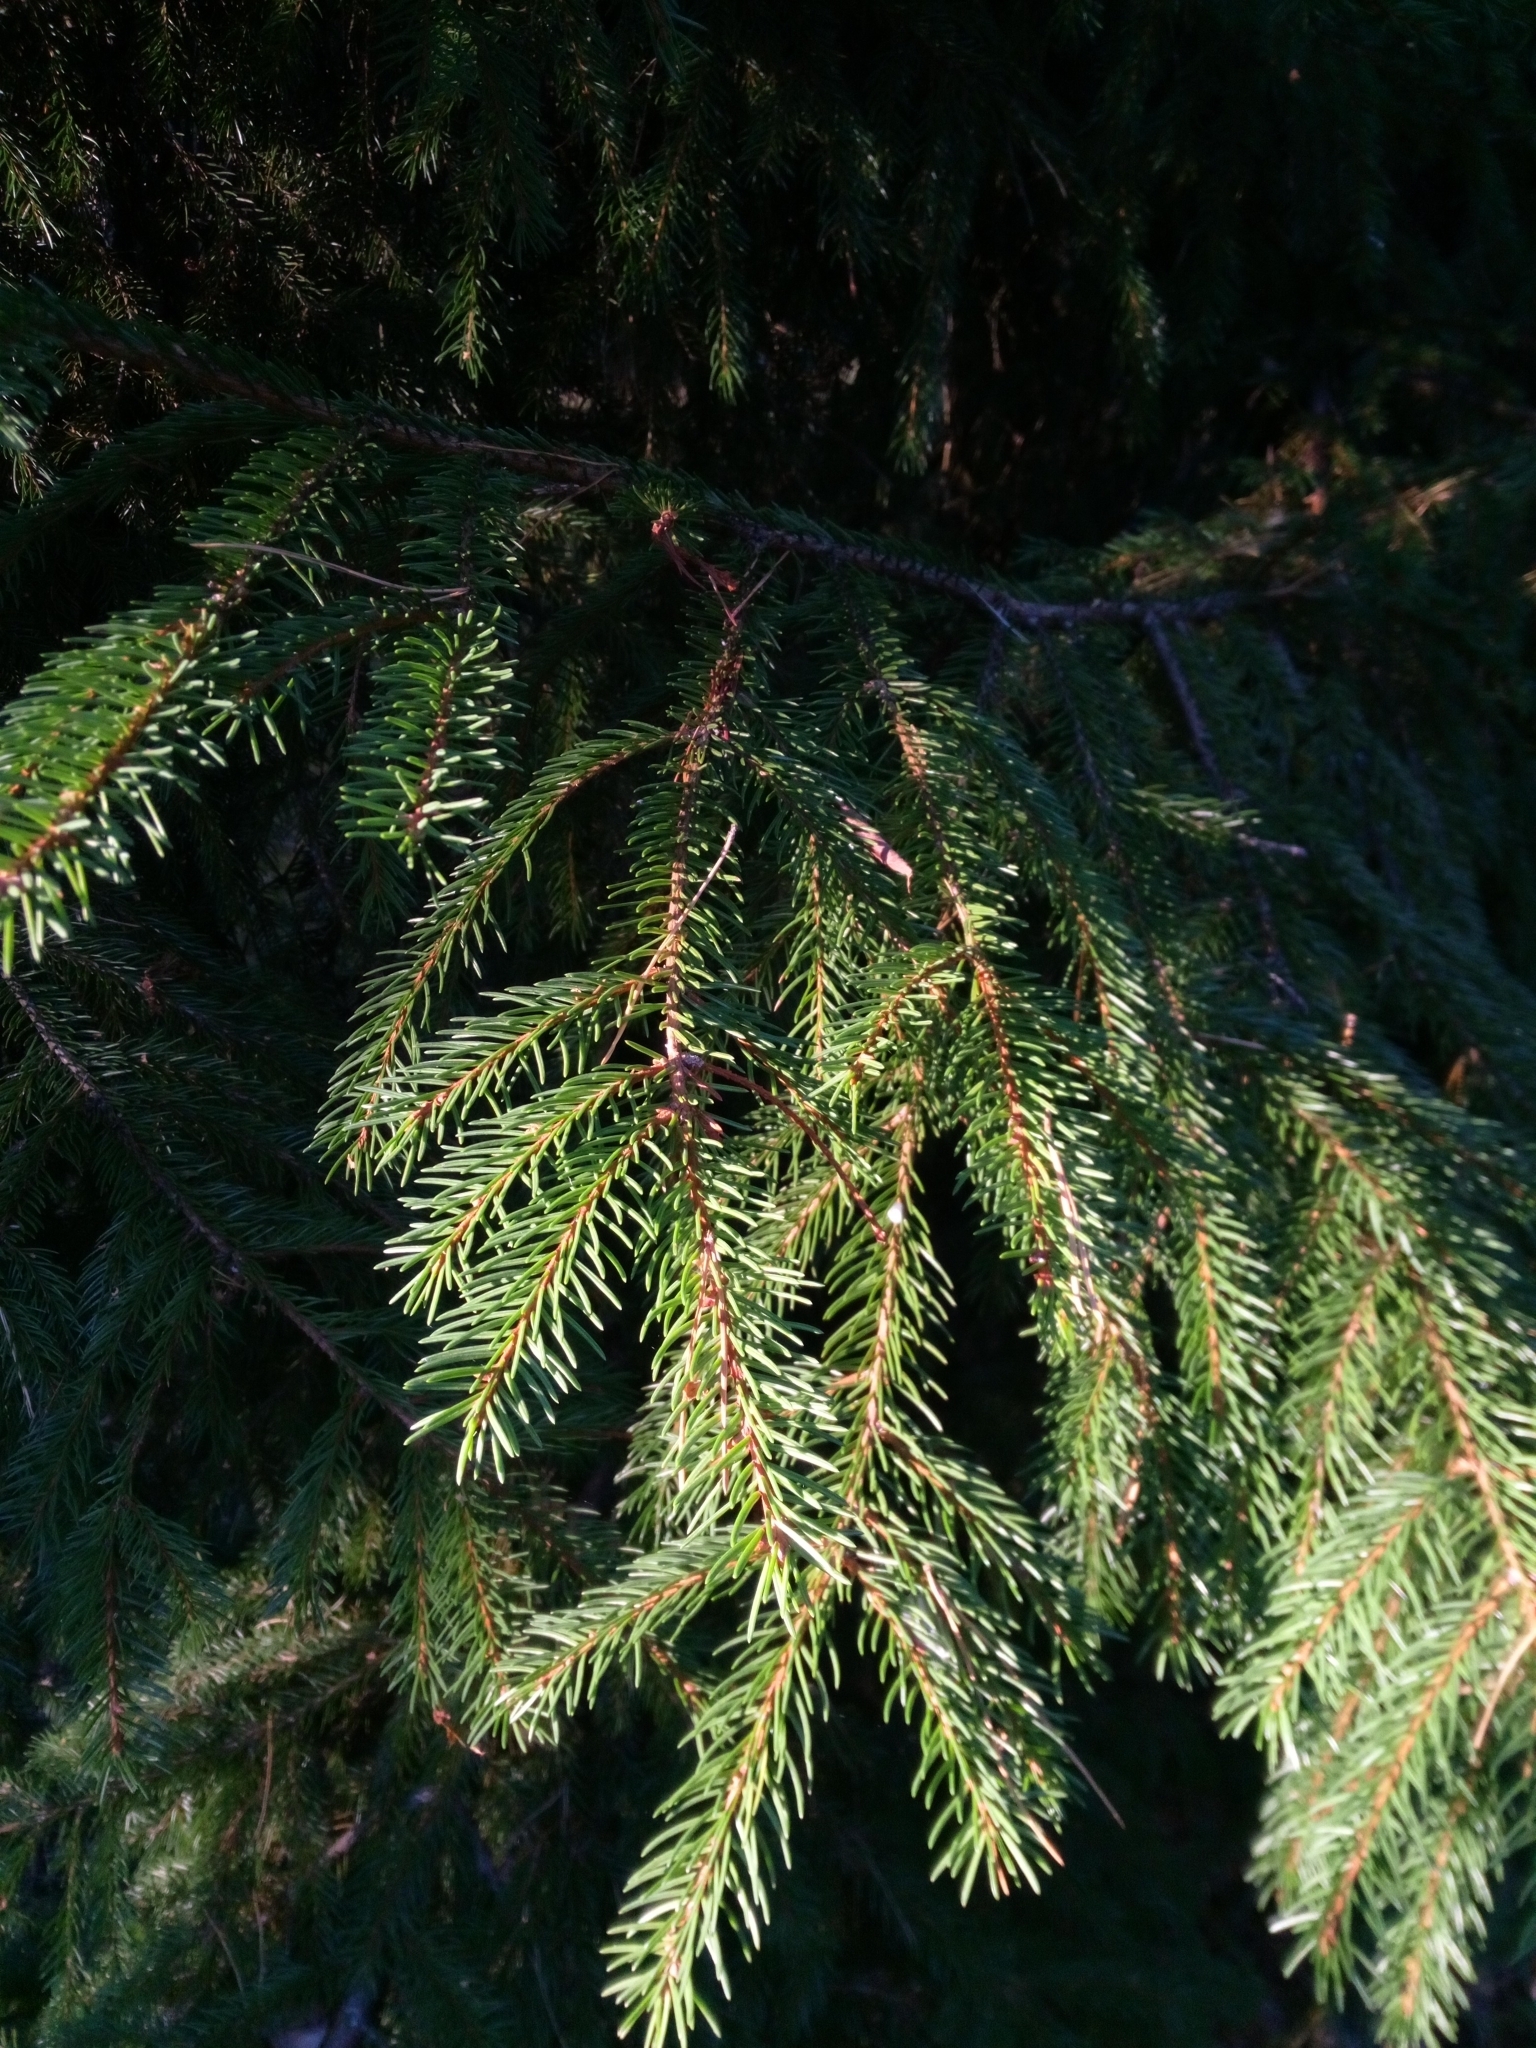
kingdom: Plantae
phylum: Tracheophyta
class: Pinopsida
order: Pinales
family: Pinaceae
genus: Picea
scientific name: Picea abies
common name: Norway spruce
